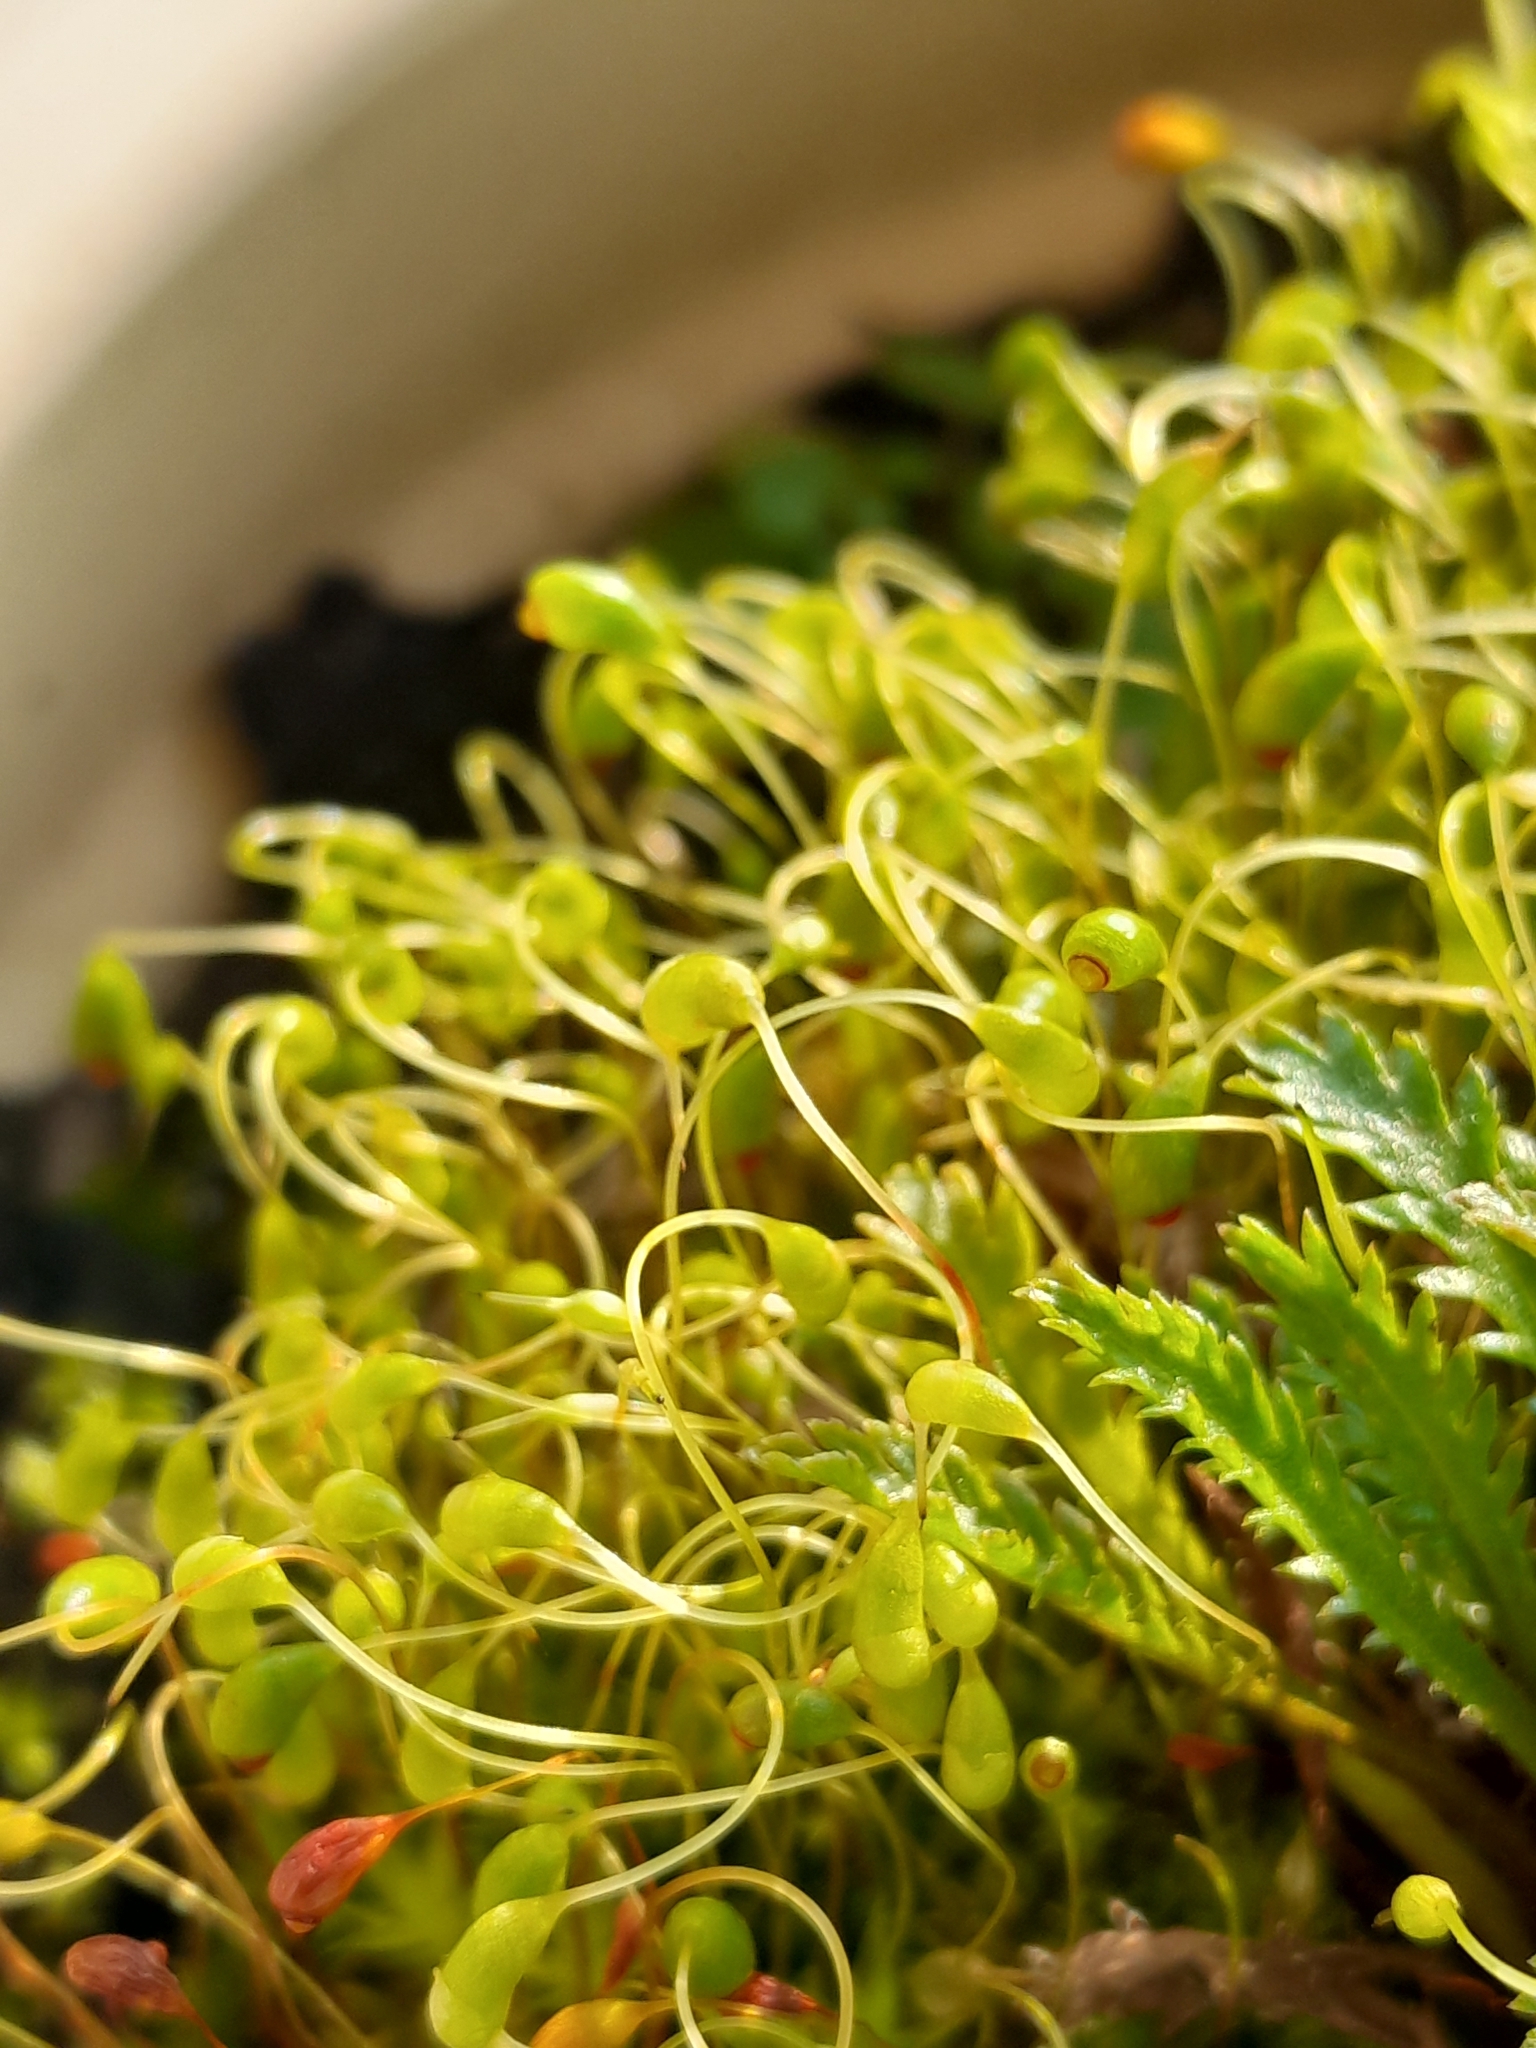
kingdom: Plantae
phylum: Bryophyta
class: Bryopsida
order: Funariales
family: Funariaceae
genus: Funaria
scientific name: Funaria hygrometrica
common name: Common cord moss
